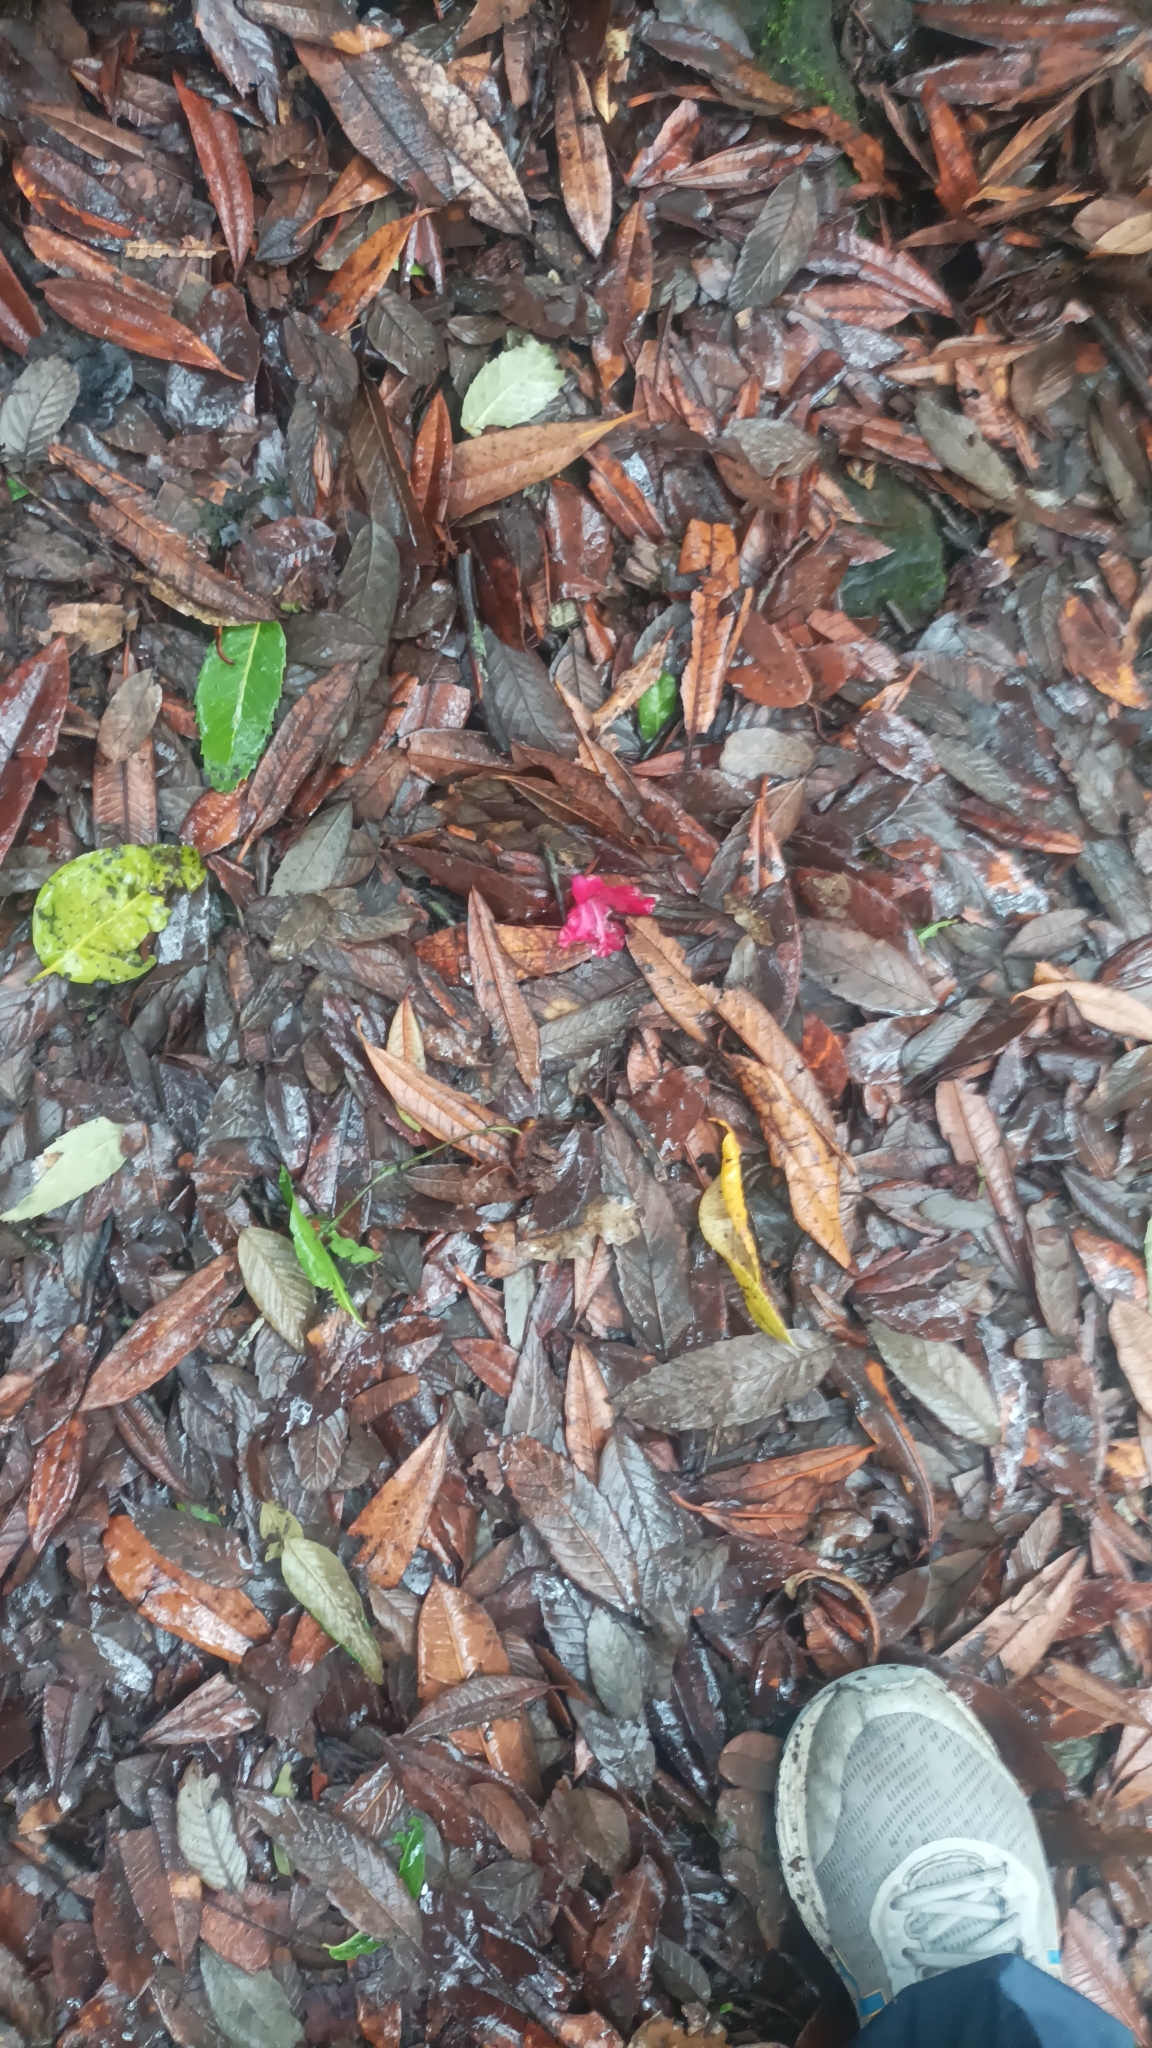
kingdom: Plantae
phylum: Tracheophyta
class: Magnoliopsida
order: Ericales
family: Ericaceae
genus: Rhododendron
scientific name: Rhododendron arboreum
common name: Tree rhododendron
